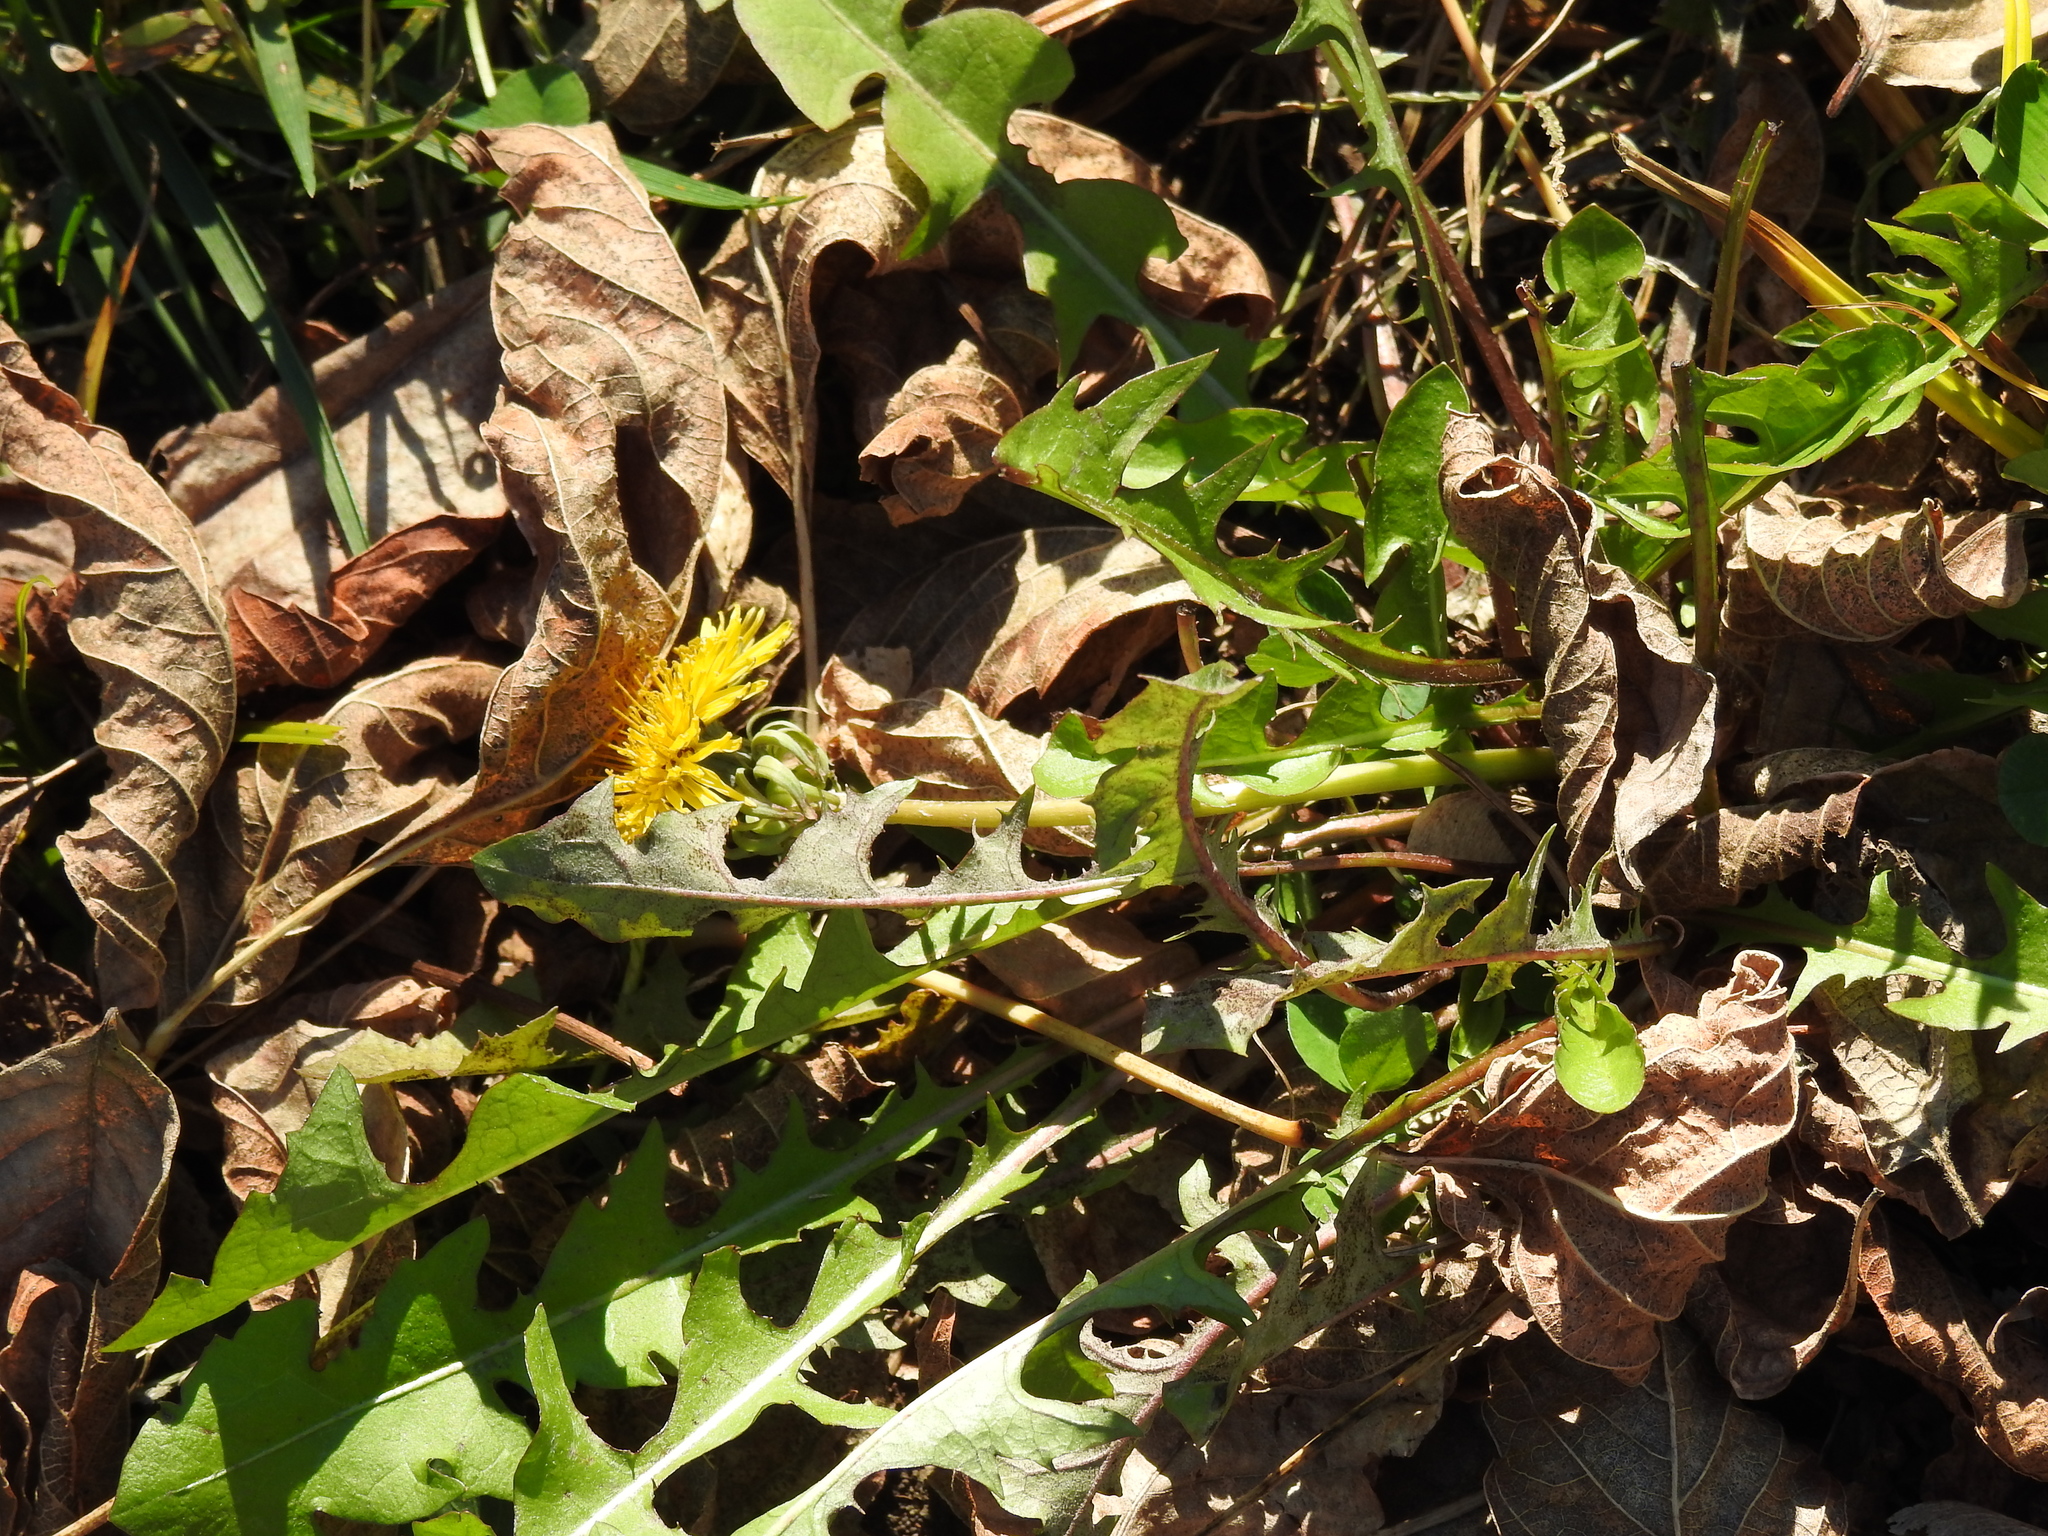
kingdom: Plantae
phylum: Tracheophyta
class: Magnoliopsida
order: Asterales
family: Asteraceae
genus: Taraxacum
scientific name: Taraxacum officinale
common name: Common dandelion
